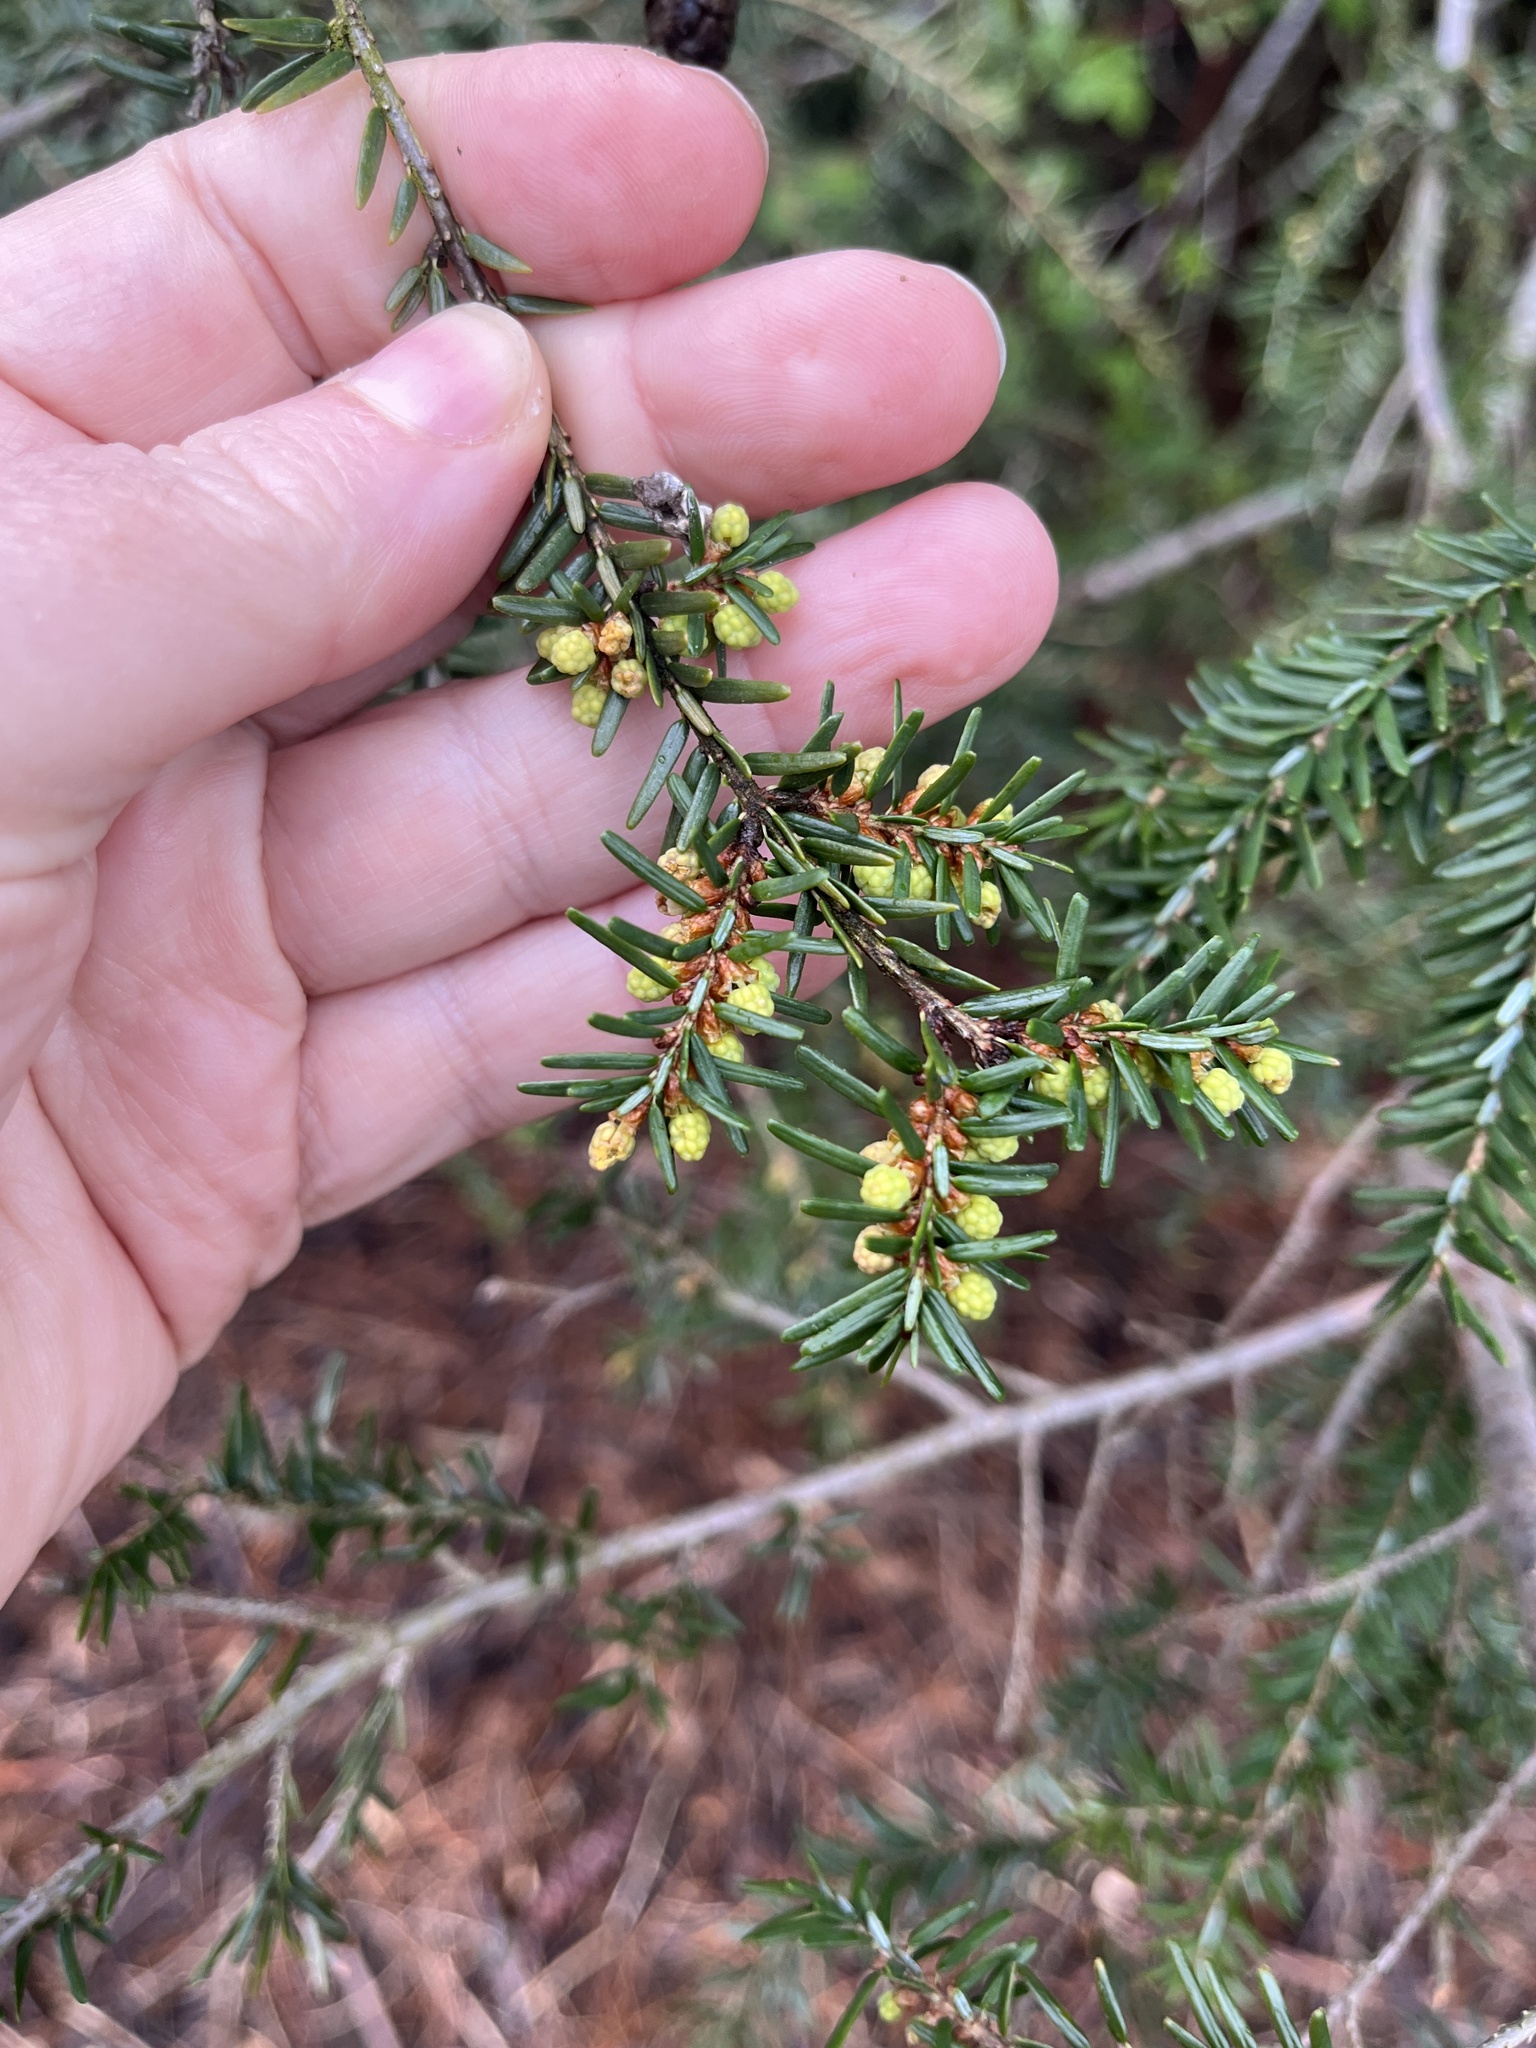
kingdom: Plantae
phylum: Tracheophyta
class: Pinopsida
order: Pinales
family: Pinaceae
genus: Tsuga
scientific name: Tsuga canadensis
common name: Eastern hemlock
